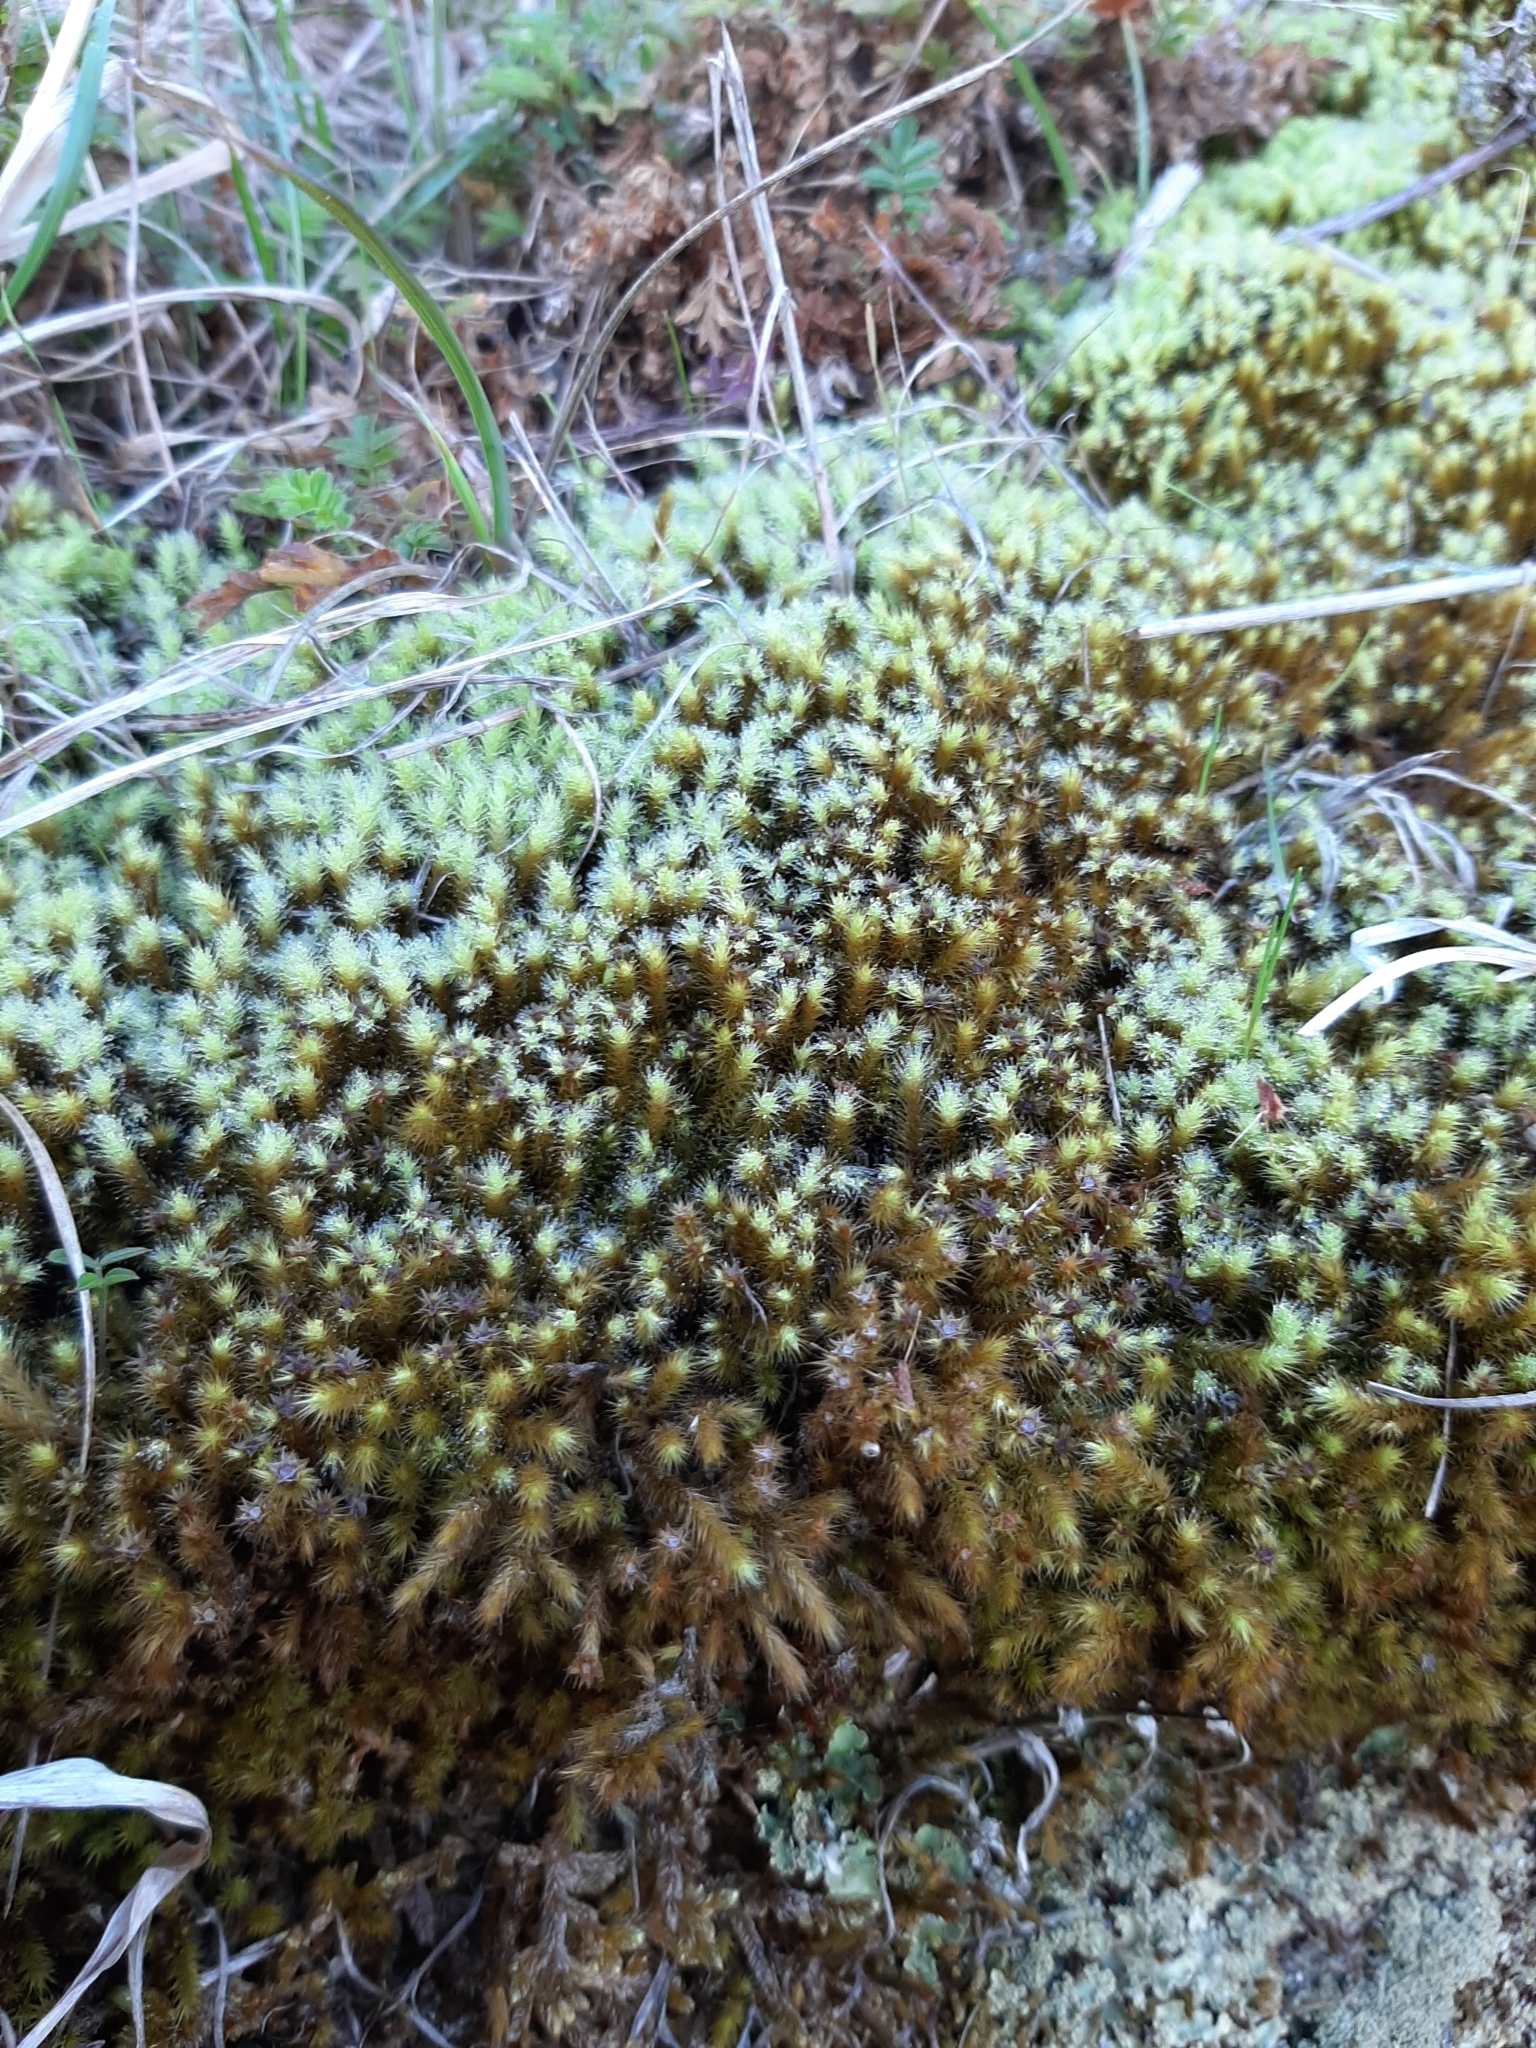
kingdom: Plantae
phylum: Bryophyta
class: Bryopsida
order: Bartramiales
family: Bartramiaceae
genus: Breutelia
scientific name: Breutelia affinis
